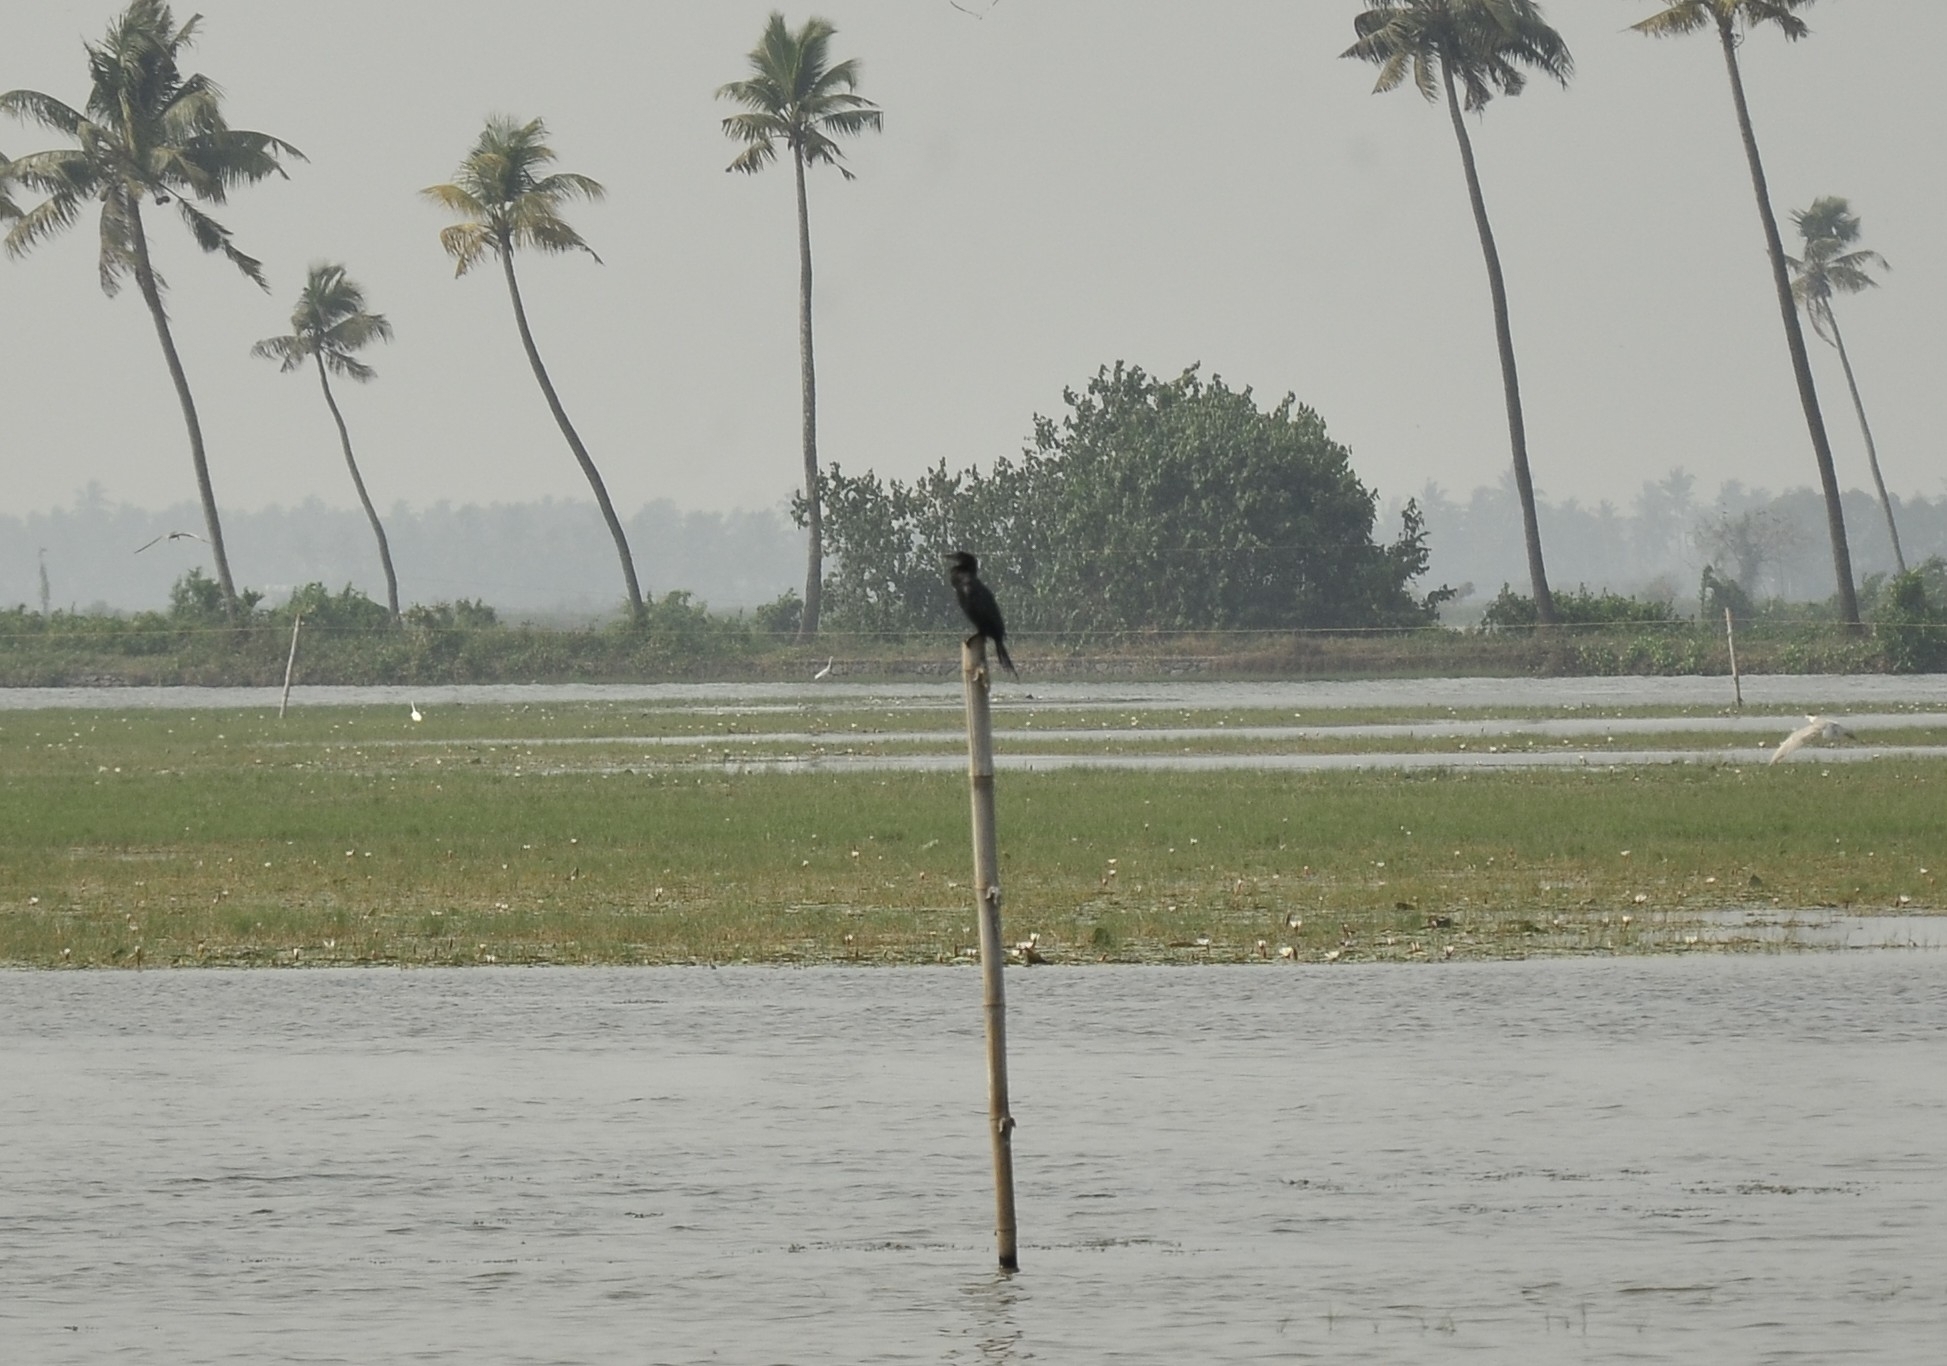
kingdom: Animalia
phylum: Chordata
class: Aves
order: Suliformes
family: Phalacrocoracidae
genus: Microcarbo
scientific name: Microcarbo niger
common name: Little cormorant
